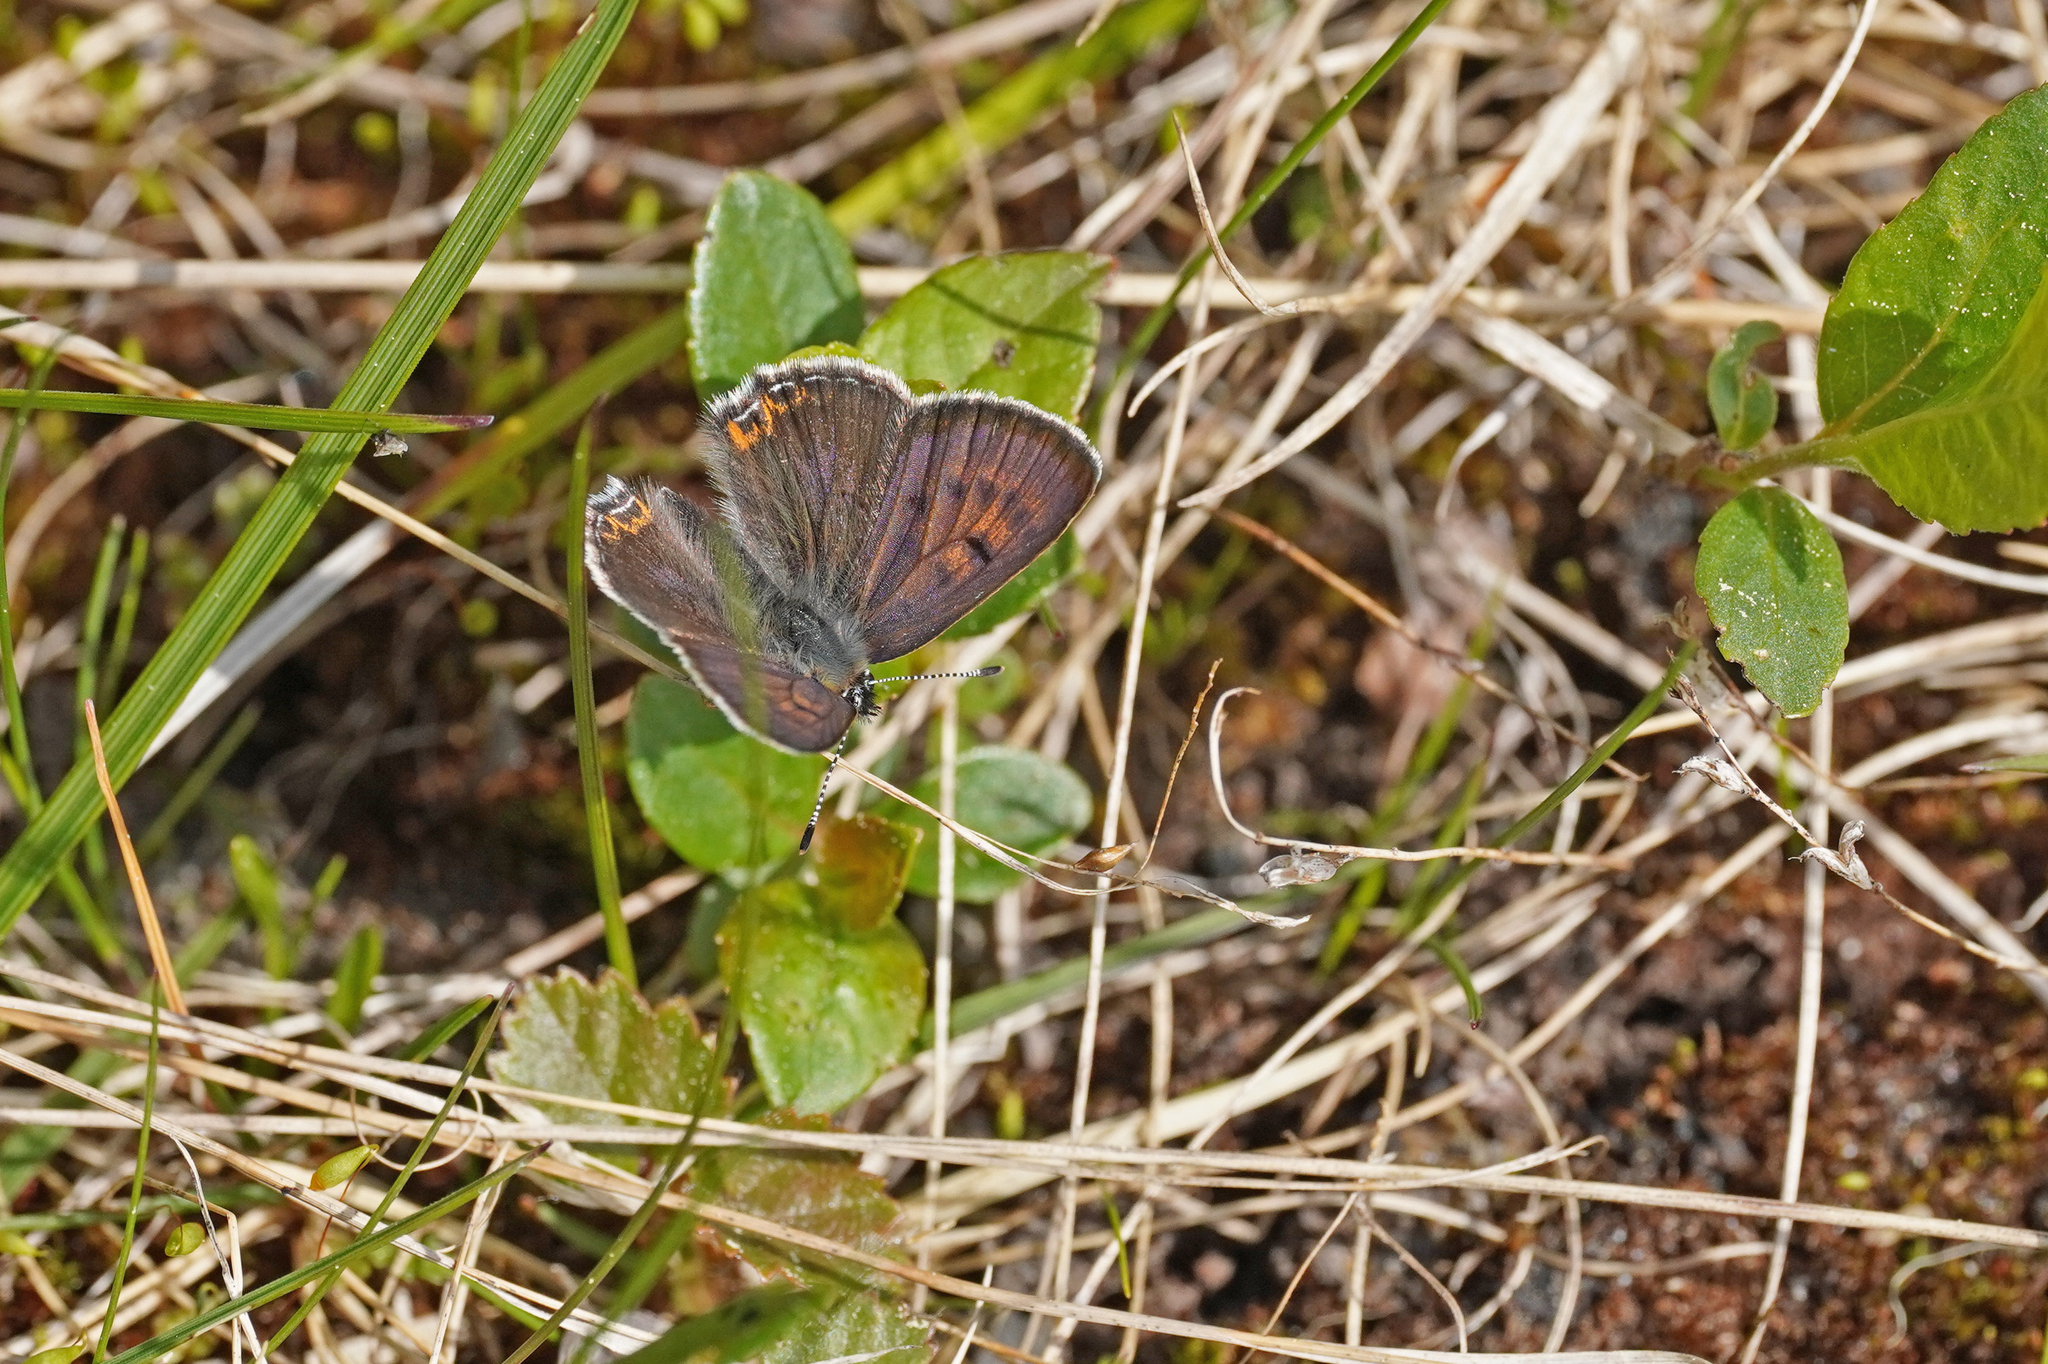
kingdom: Animalia
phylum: Arthropoda
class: Insecta
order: Lepidoptera
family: Lycaenidae
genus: Helleia
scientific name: Helleia helle
